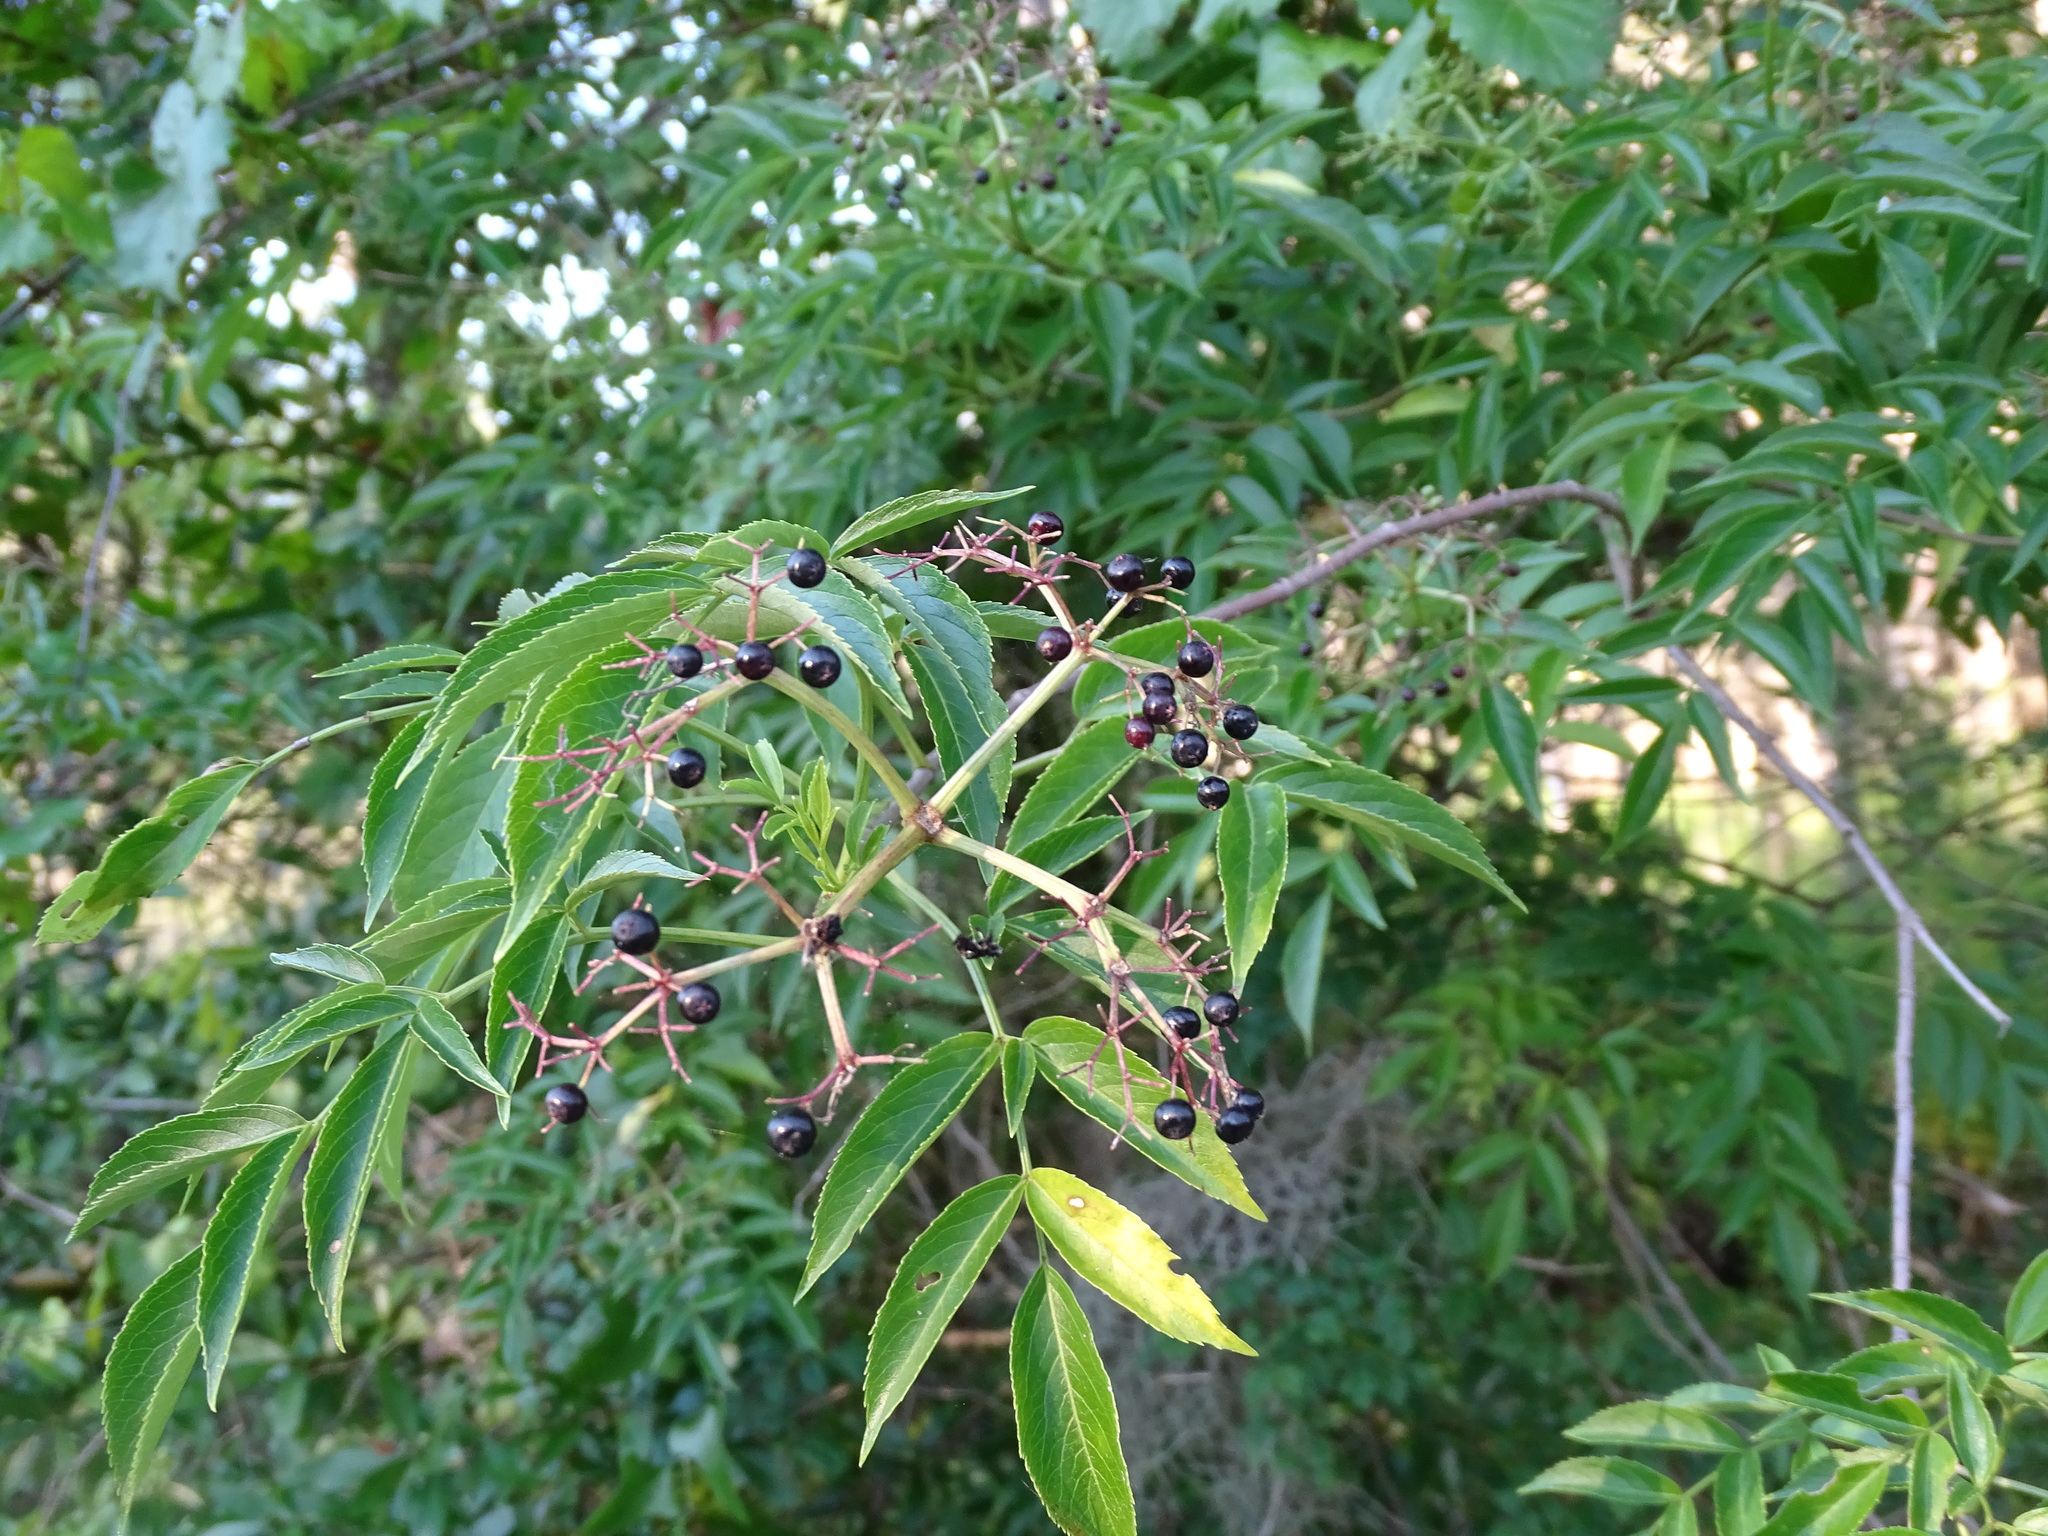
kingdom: Plantae
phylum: Tracheophyta
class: Magnoliopsida
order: Dipsacales
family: Viburnaceae
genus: Sambucus
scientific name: Sambucus canadensis
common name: American elder
